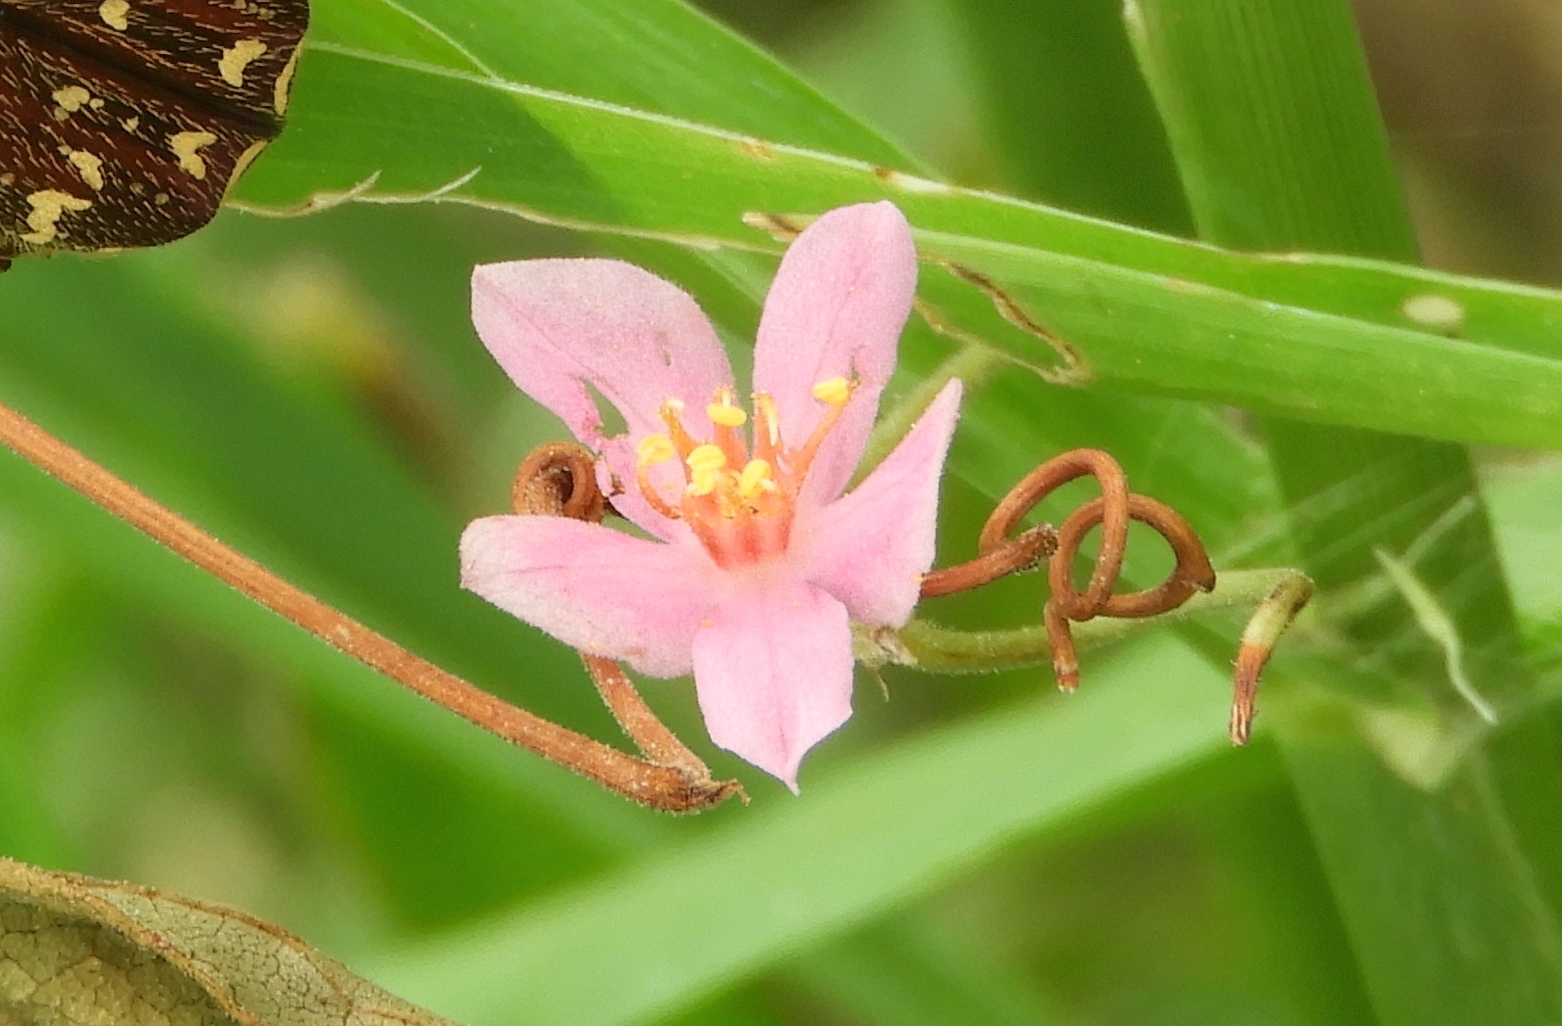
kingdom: Plantae
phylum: Tracheophyta
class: Magnoliopsida
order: Caryophyllales
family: Polygonaceae
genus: Antigonon
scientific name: Antigonon leptopus
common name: Coral vine
